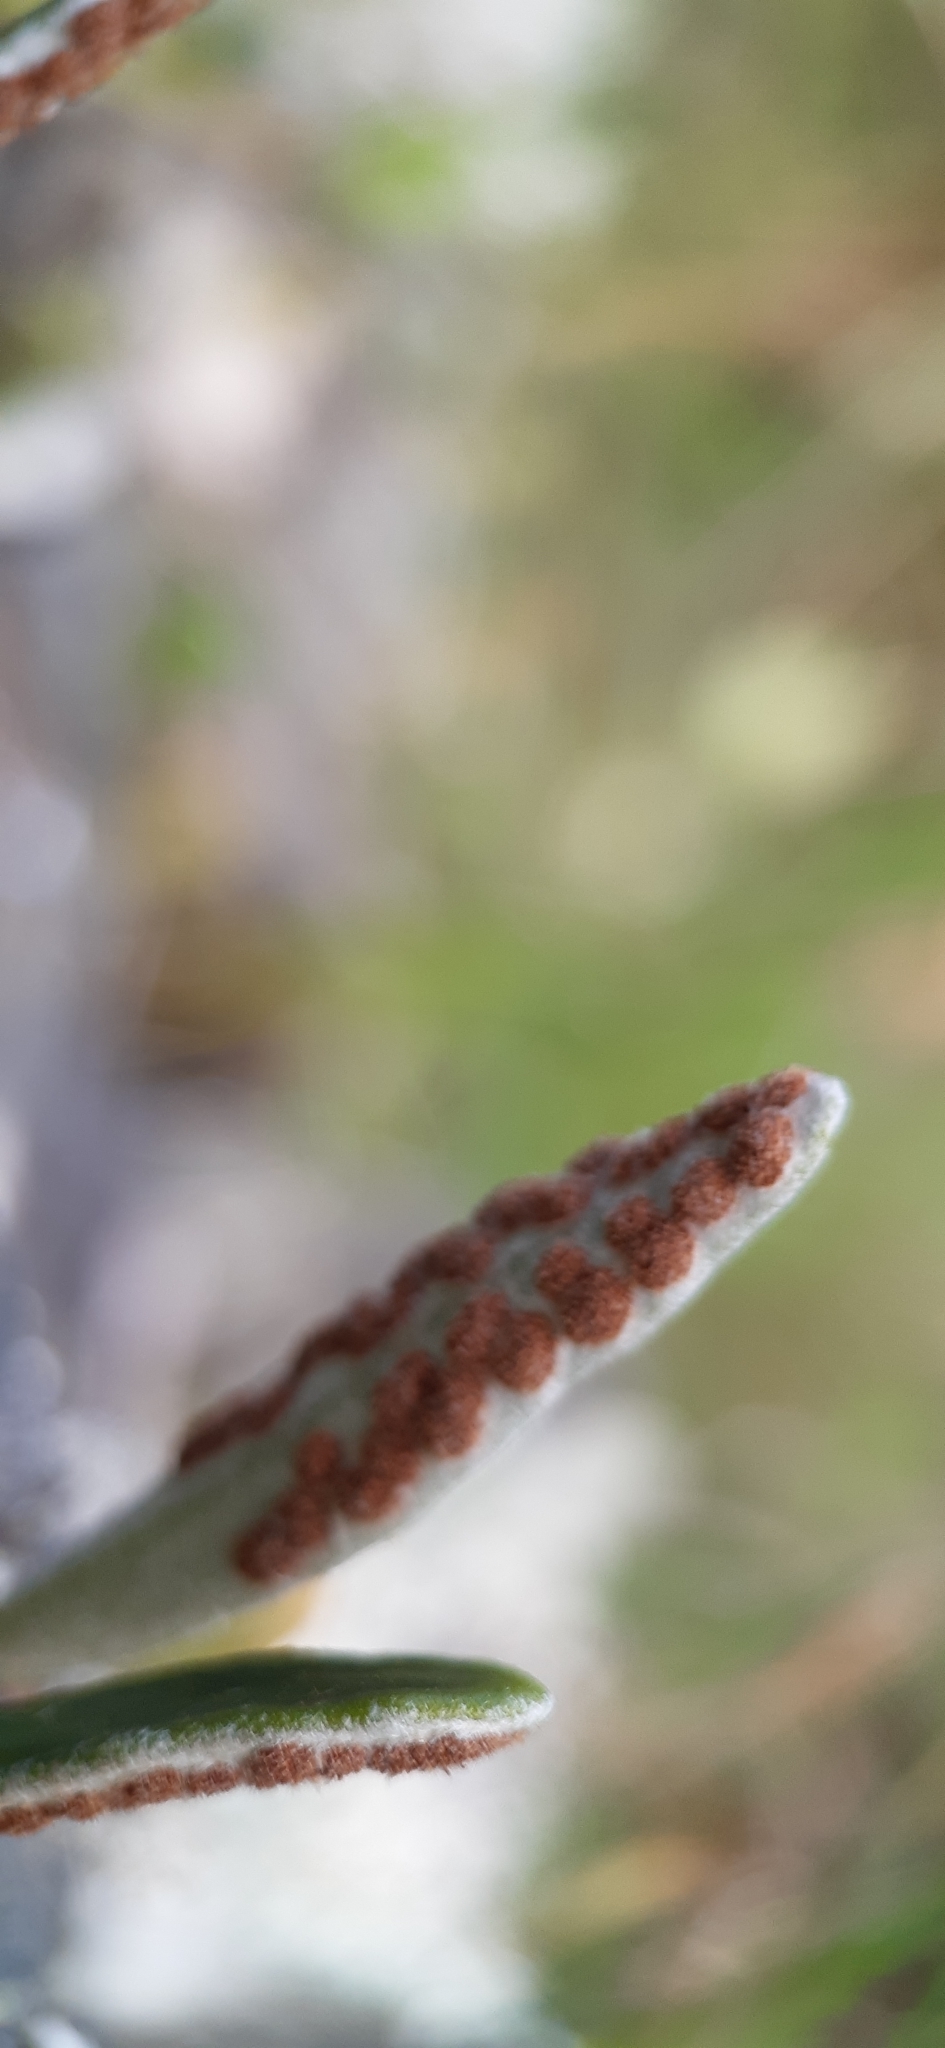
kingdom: Plantae
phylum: Tracheophyta
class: Polypodiopsida
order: Polypodiales
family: Polypodiaceae
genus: Pyrrosia
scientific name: Pyrrosia eleagnifolia
